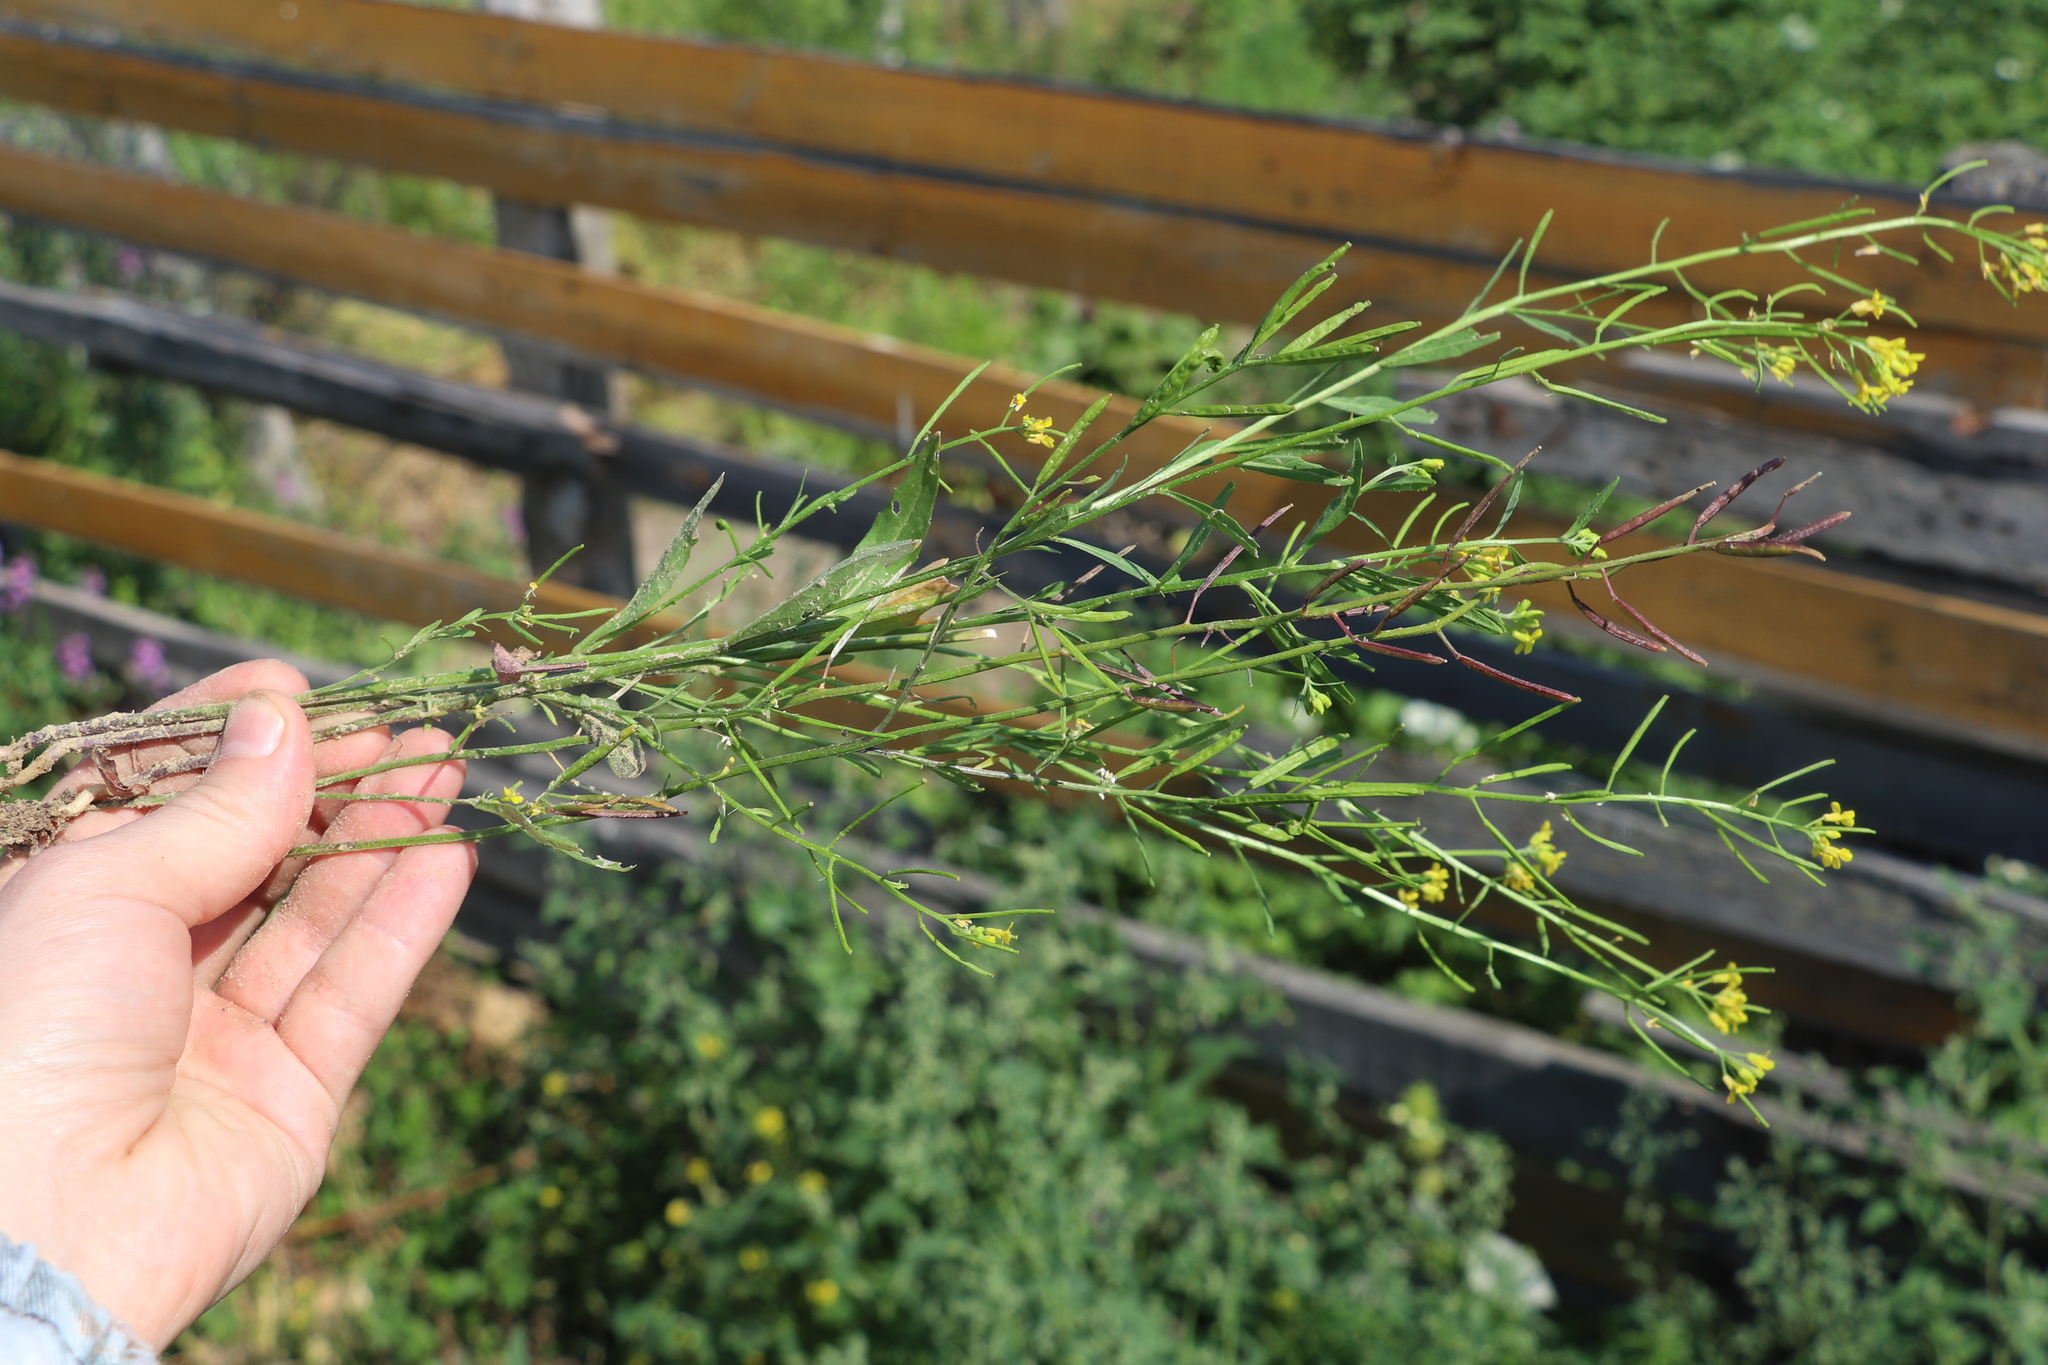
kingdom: Plantae
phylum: Tracheophyta
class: Magnoliopsida
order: Brassicales
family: Brassicaceae
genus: Erysimum
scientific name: Erysimum cheiranthoides
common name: Treacle mustard
